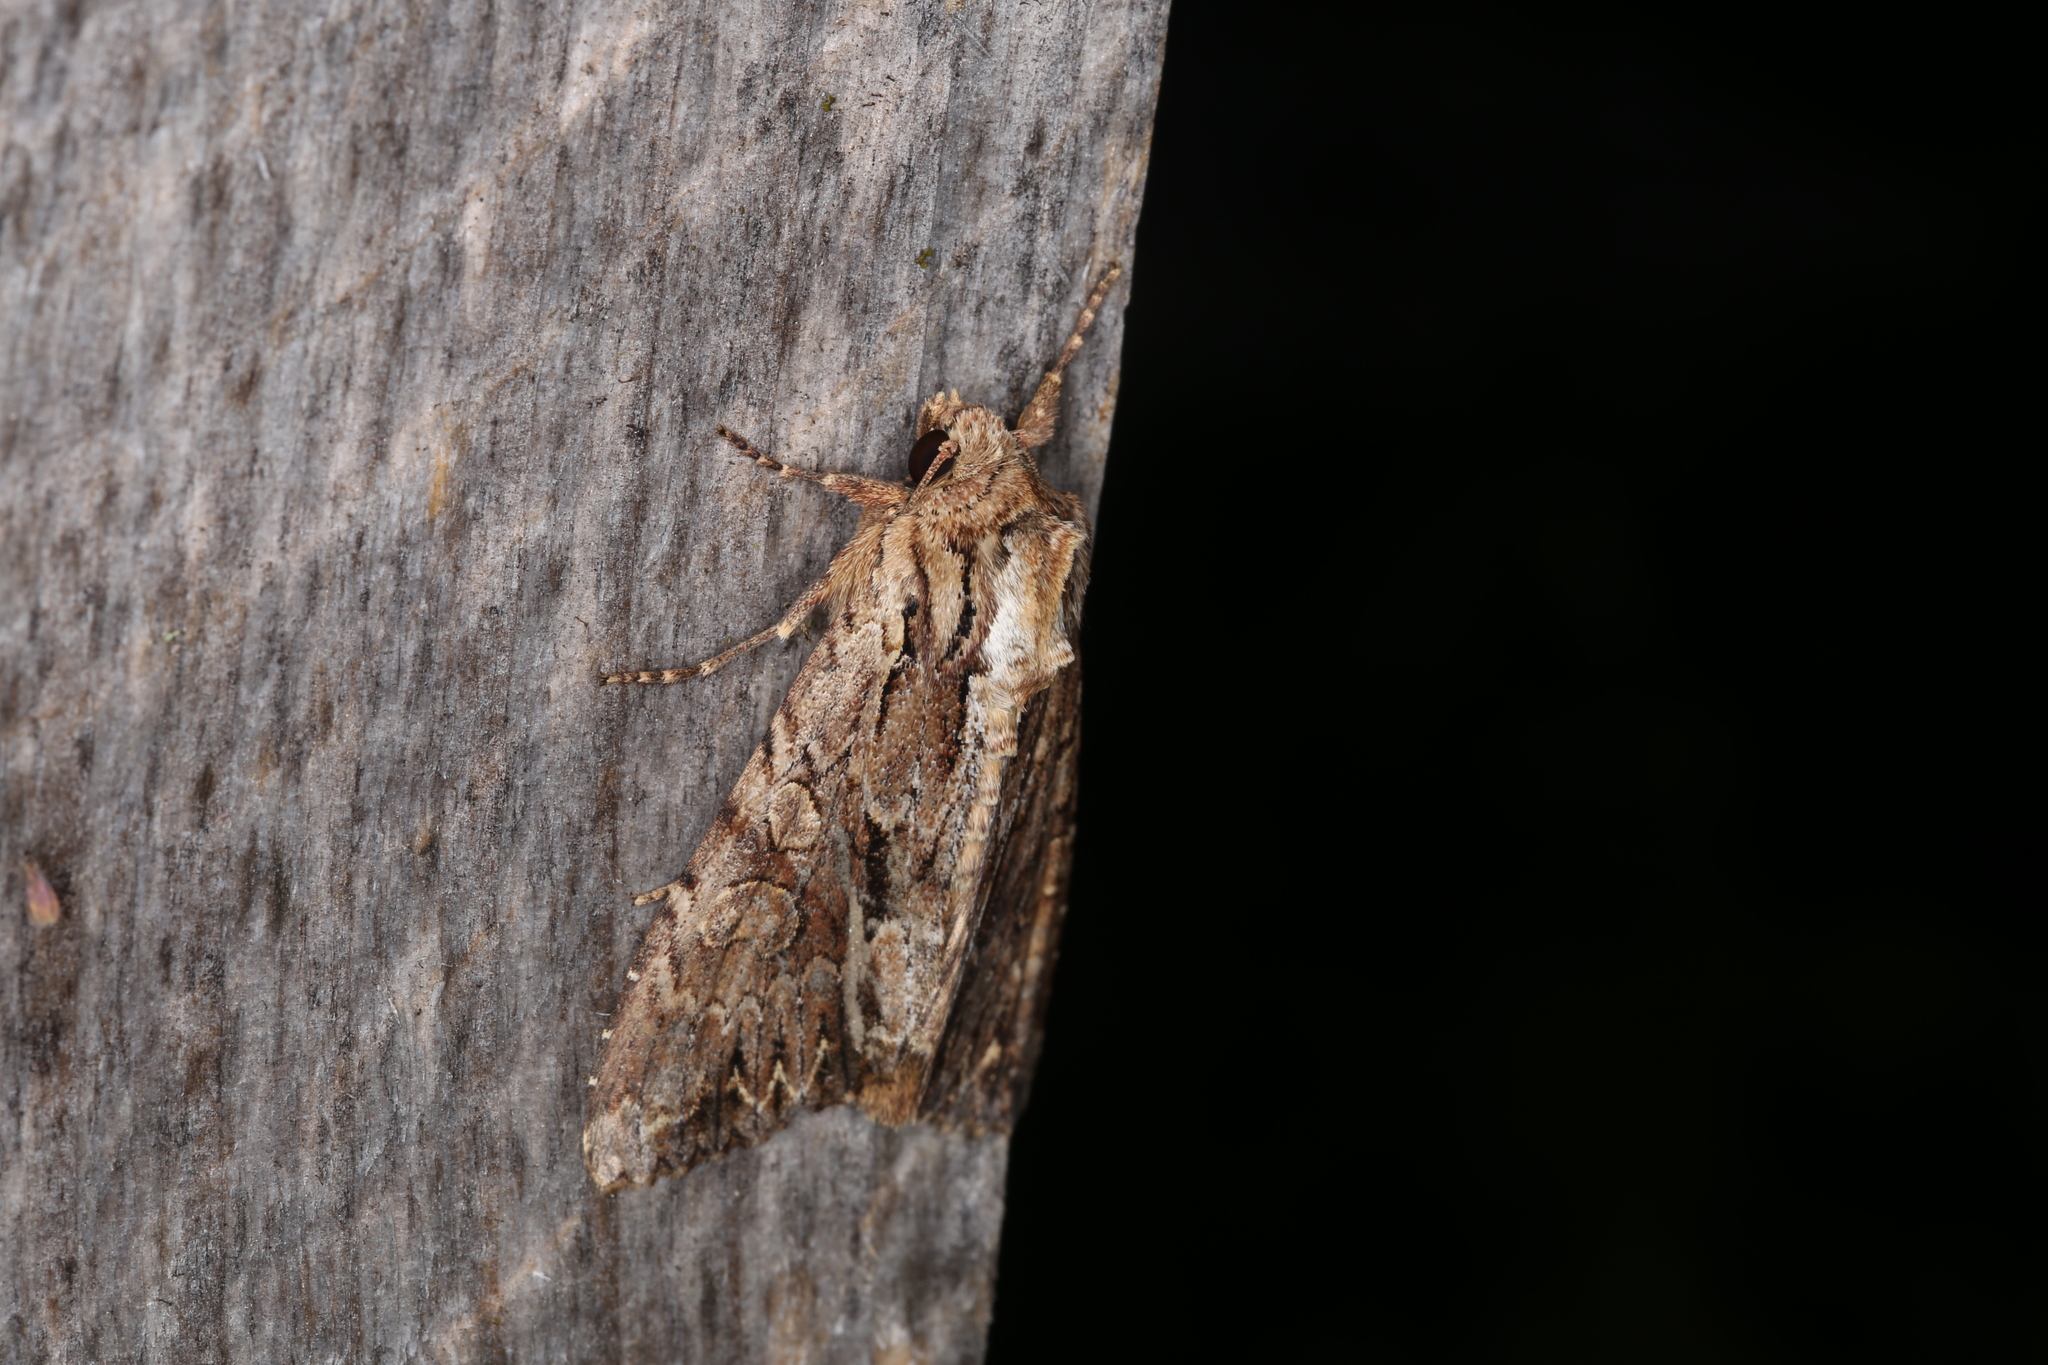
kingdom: Animalia
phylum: Arthropoda
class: Insecta
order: Lepidoptera
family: Noctuidae
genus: Apamea
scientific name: Apamea monoglypha
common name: Dark arches
